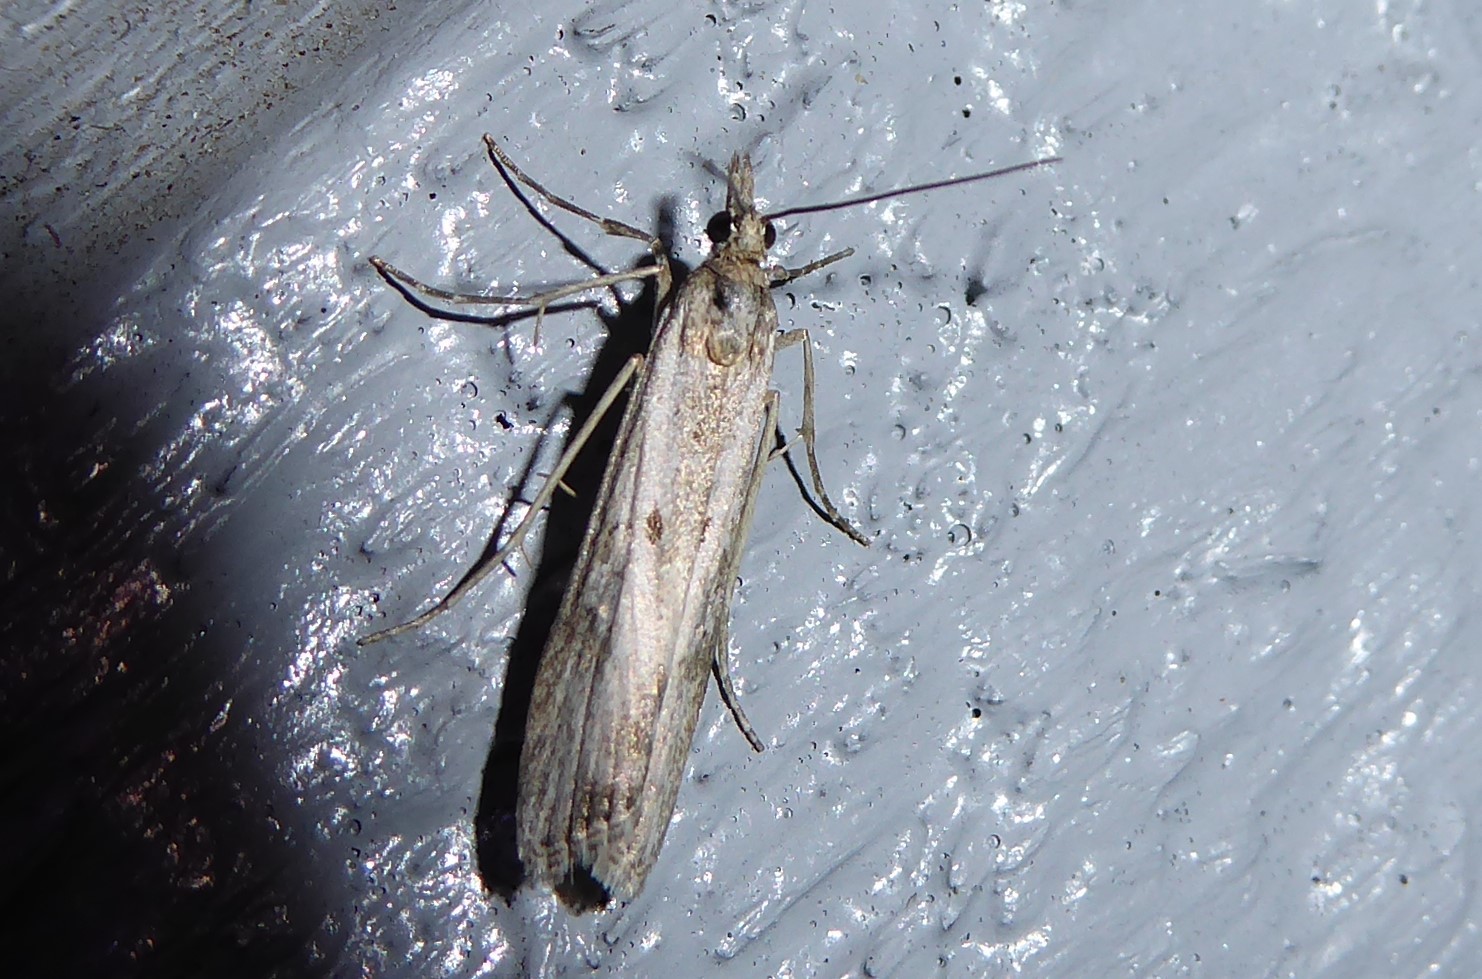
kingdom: Animalia
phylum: Arthropoda
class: Insecta
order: Lepidoptera
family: Crambidae
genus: Eudonia
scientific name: Eudonia leptalea
